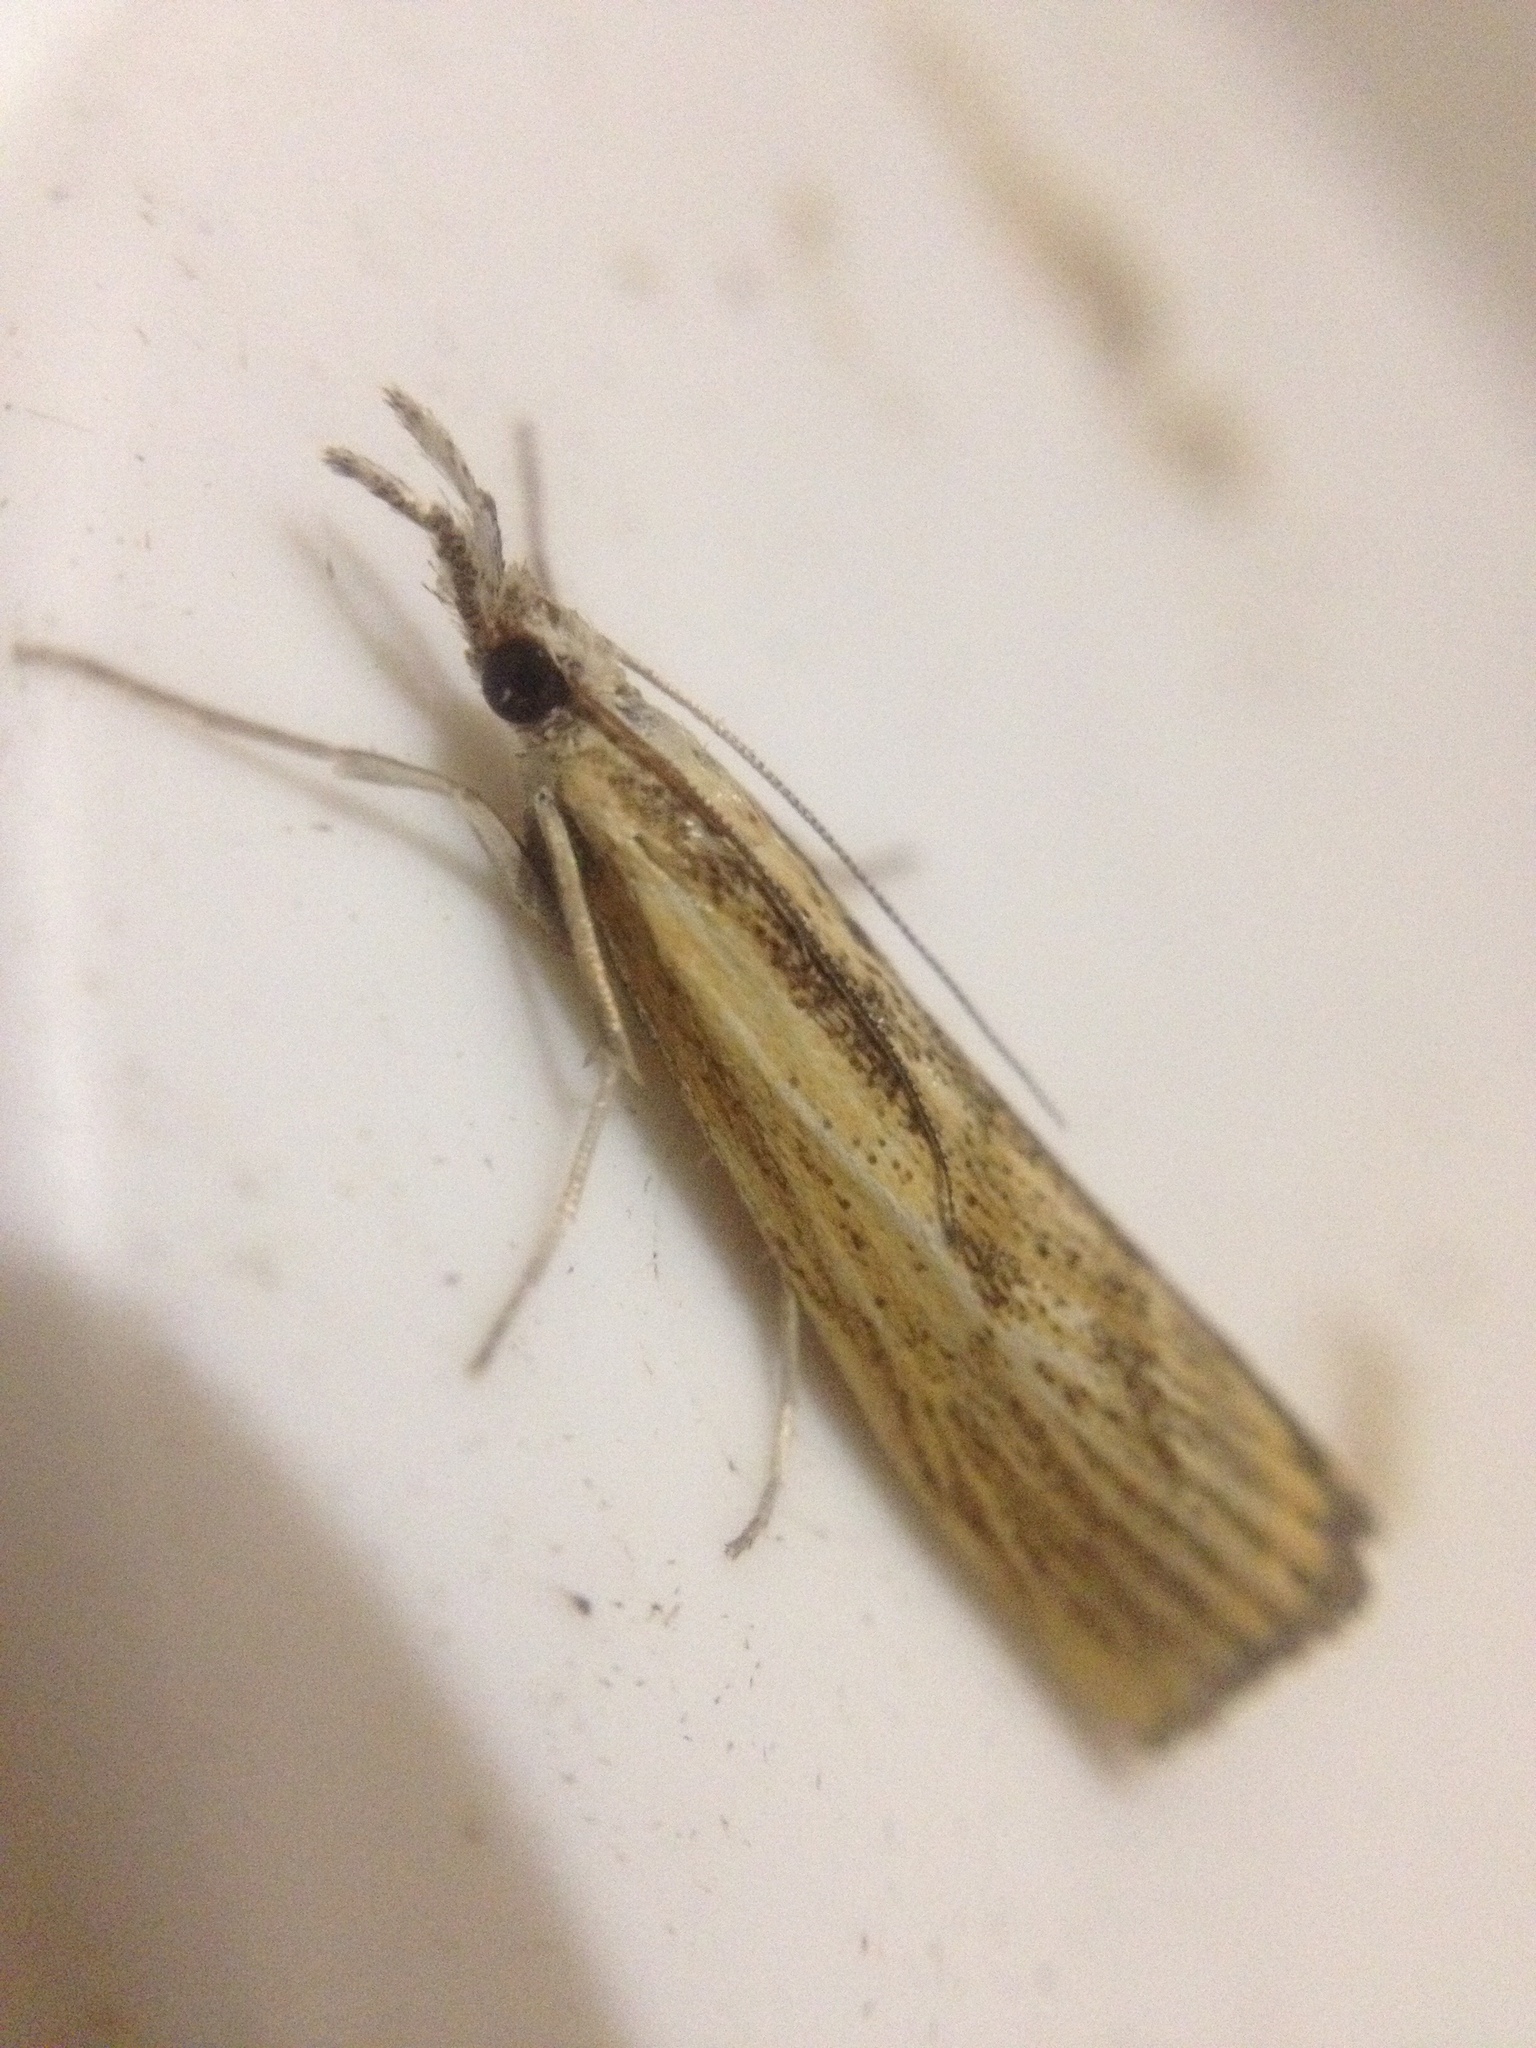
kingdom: Animalia
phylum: Arthropoda
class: Insecta
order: Lepidoptera
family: Crambidae
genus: Agriphila
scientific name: Agriphila inquinatella
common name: Barred grass-veneer
